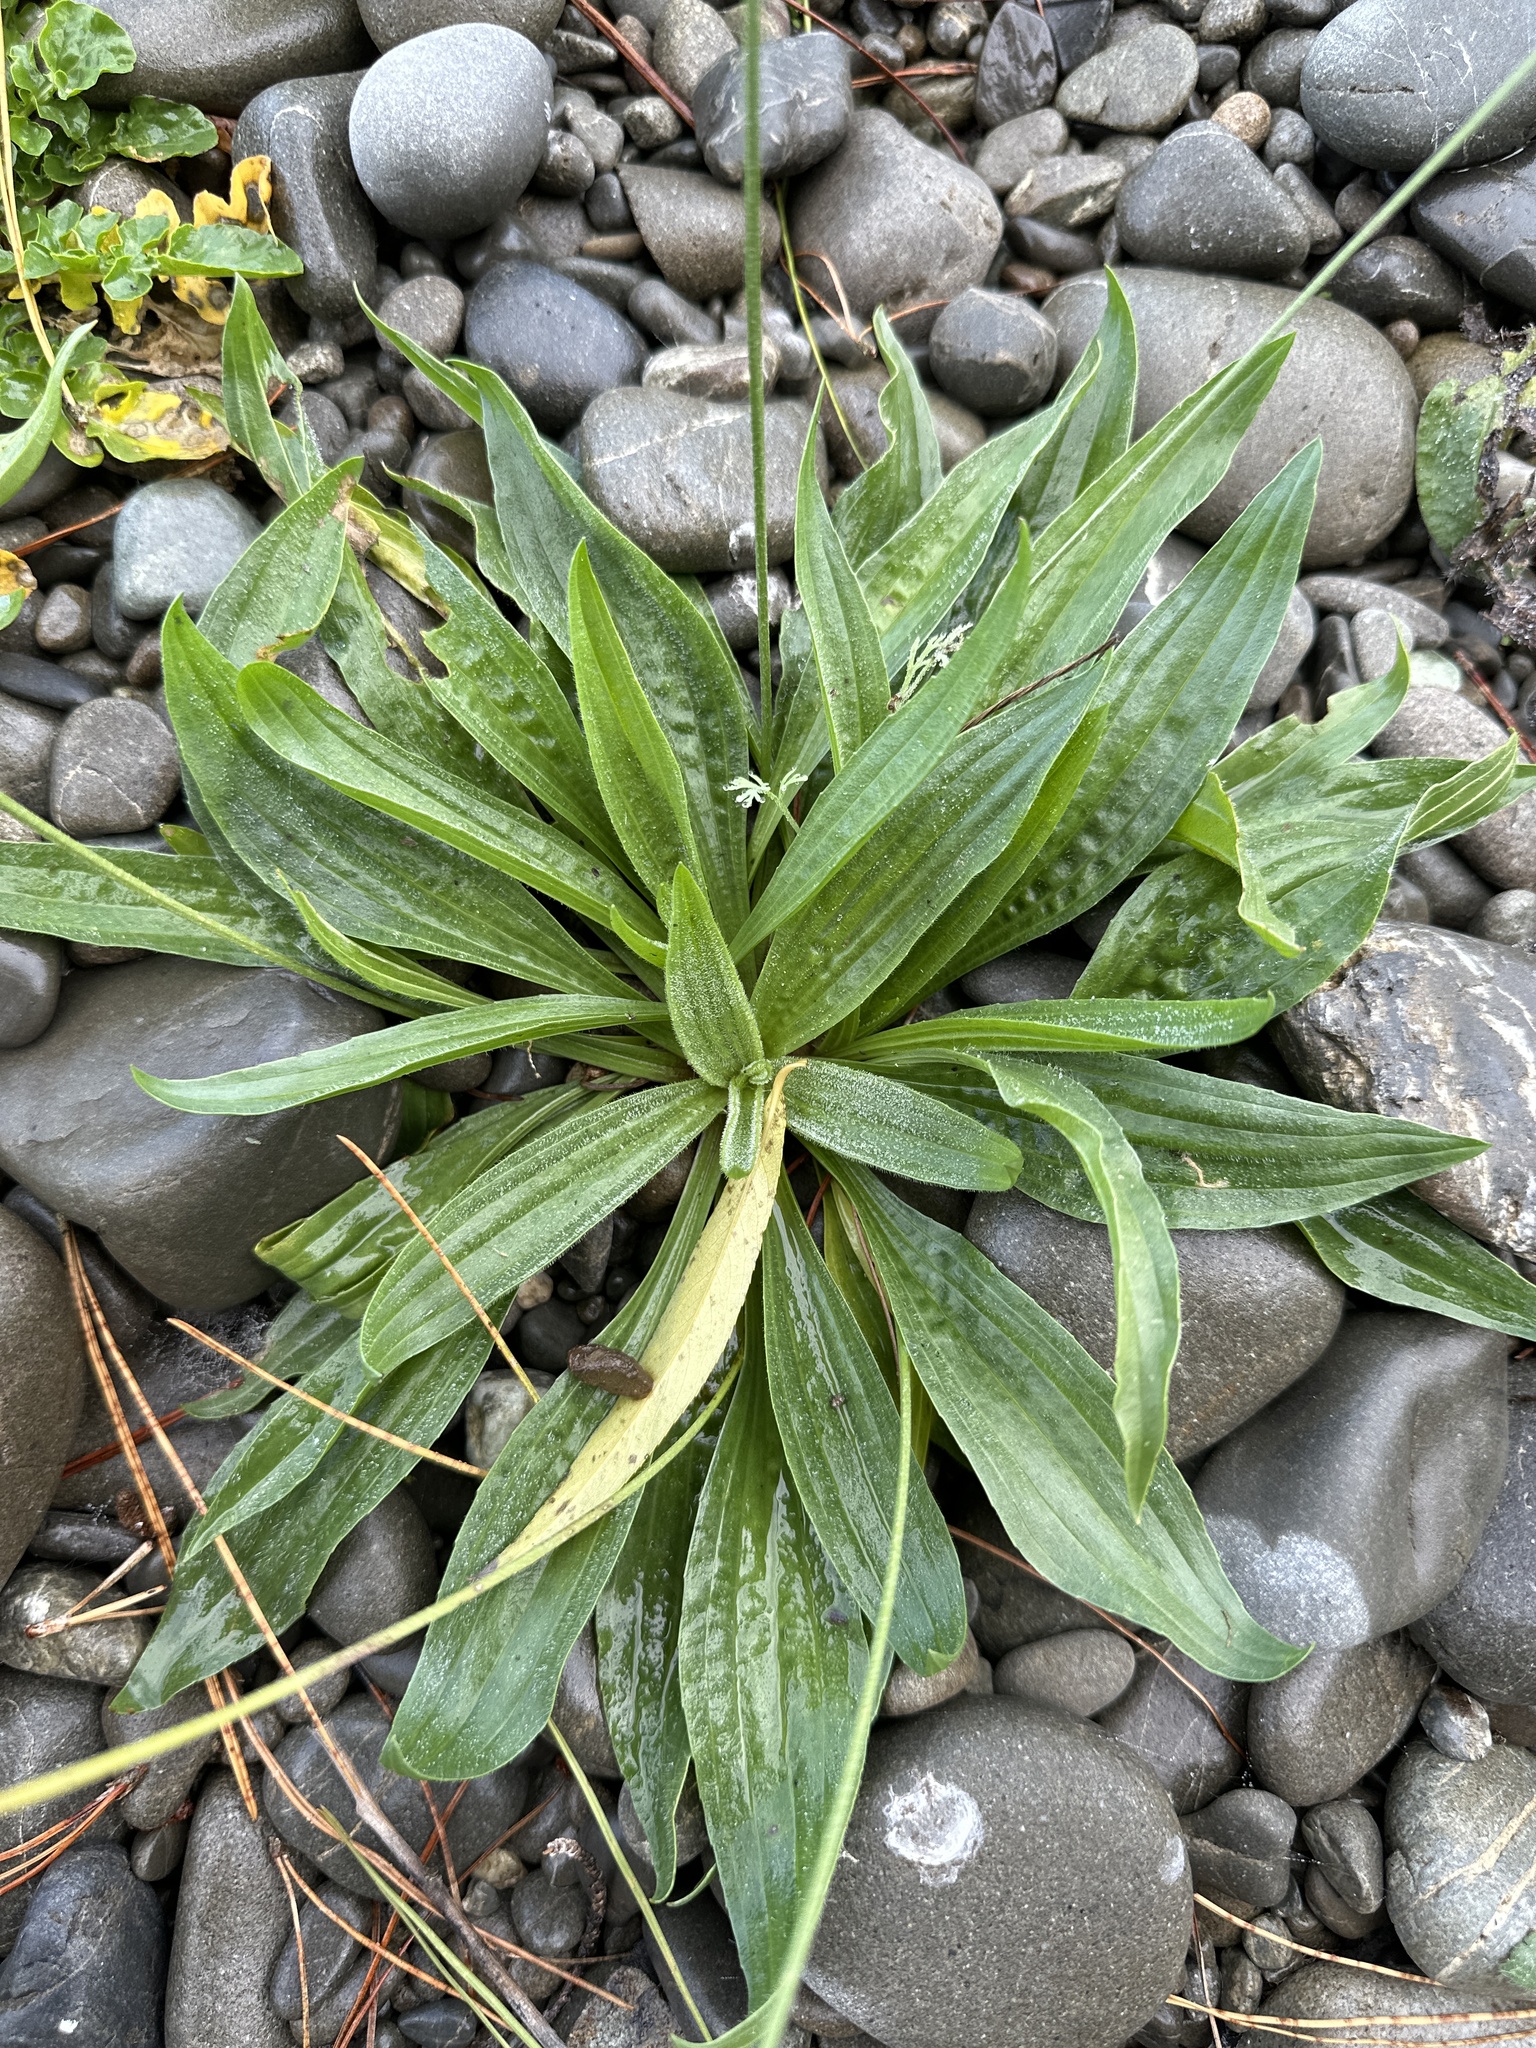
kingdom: Plantae
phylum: Tracheophyta
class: Magnoliopsida
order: Lamiales
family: Plantaginaceae
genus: Plantago
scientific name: Plantago lanceolata
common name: Ribwort plantain
